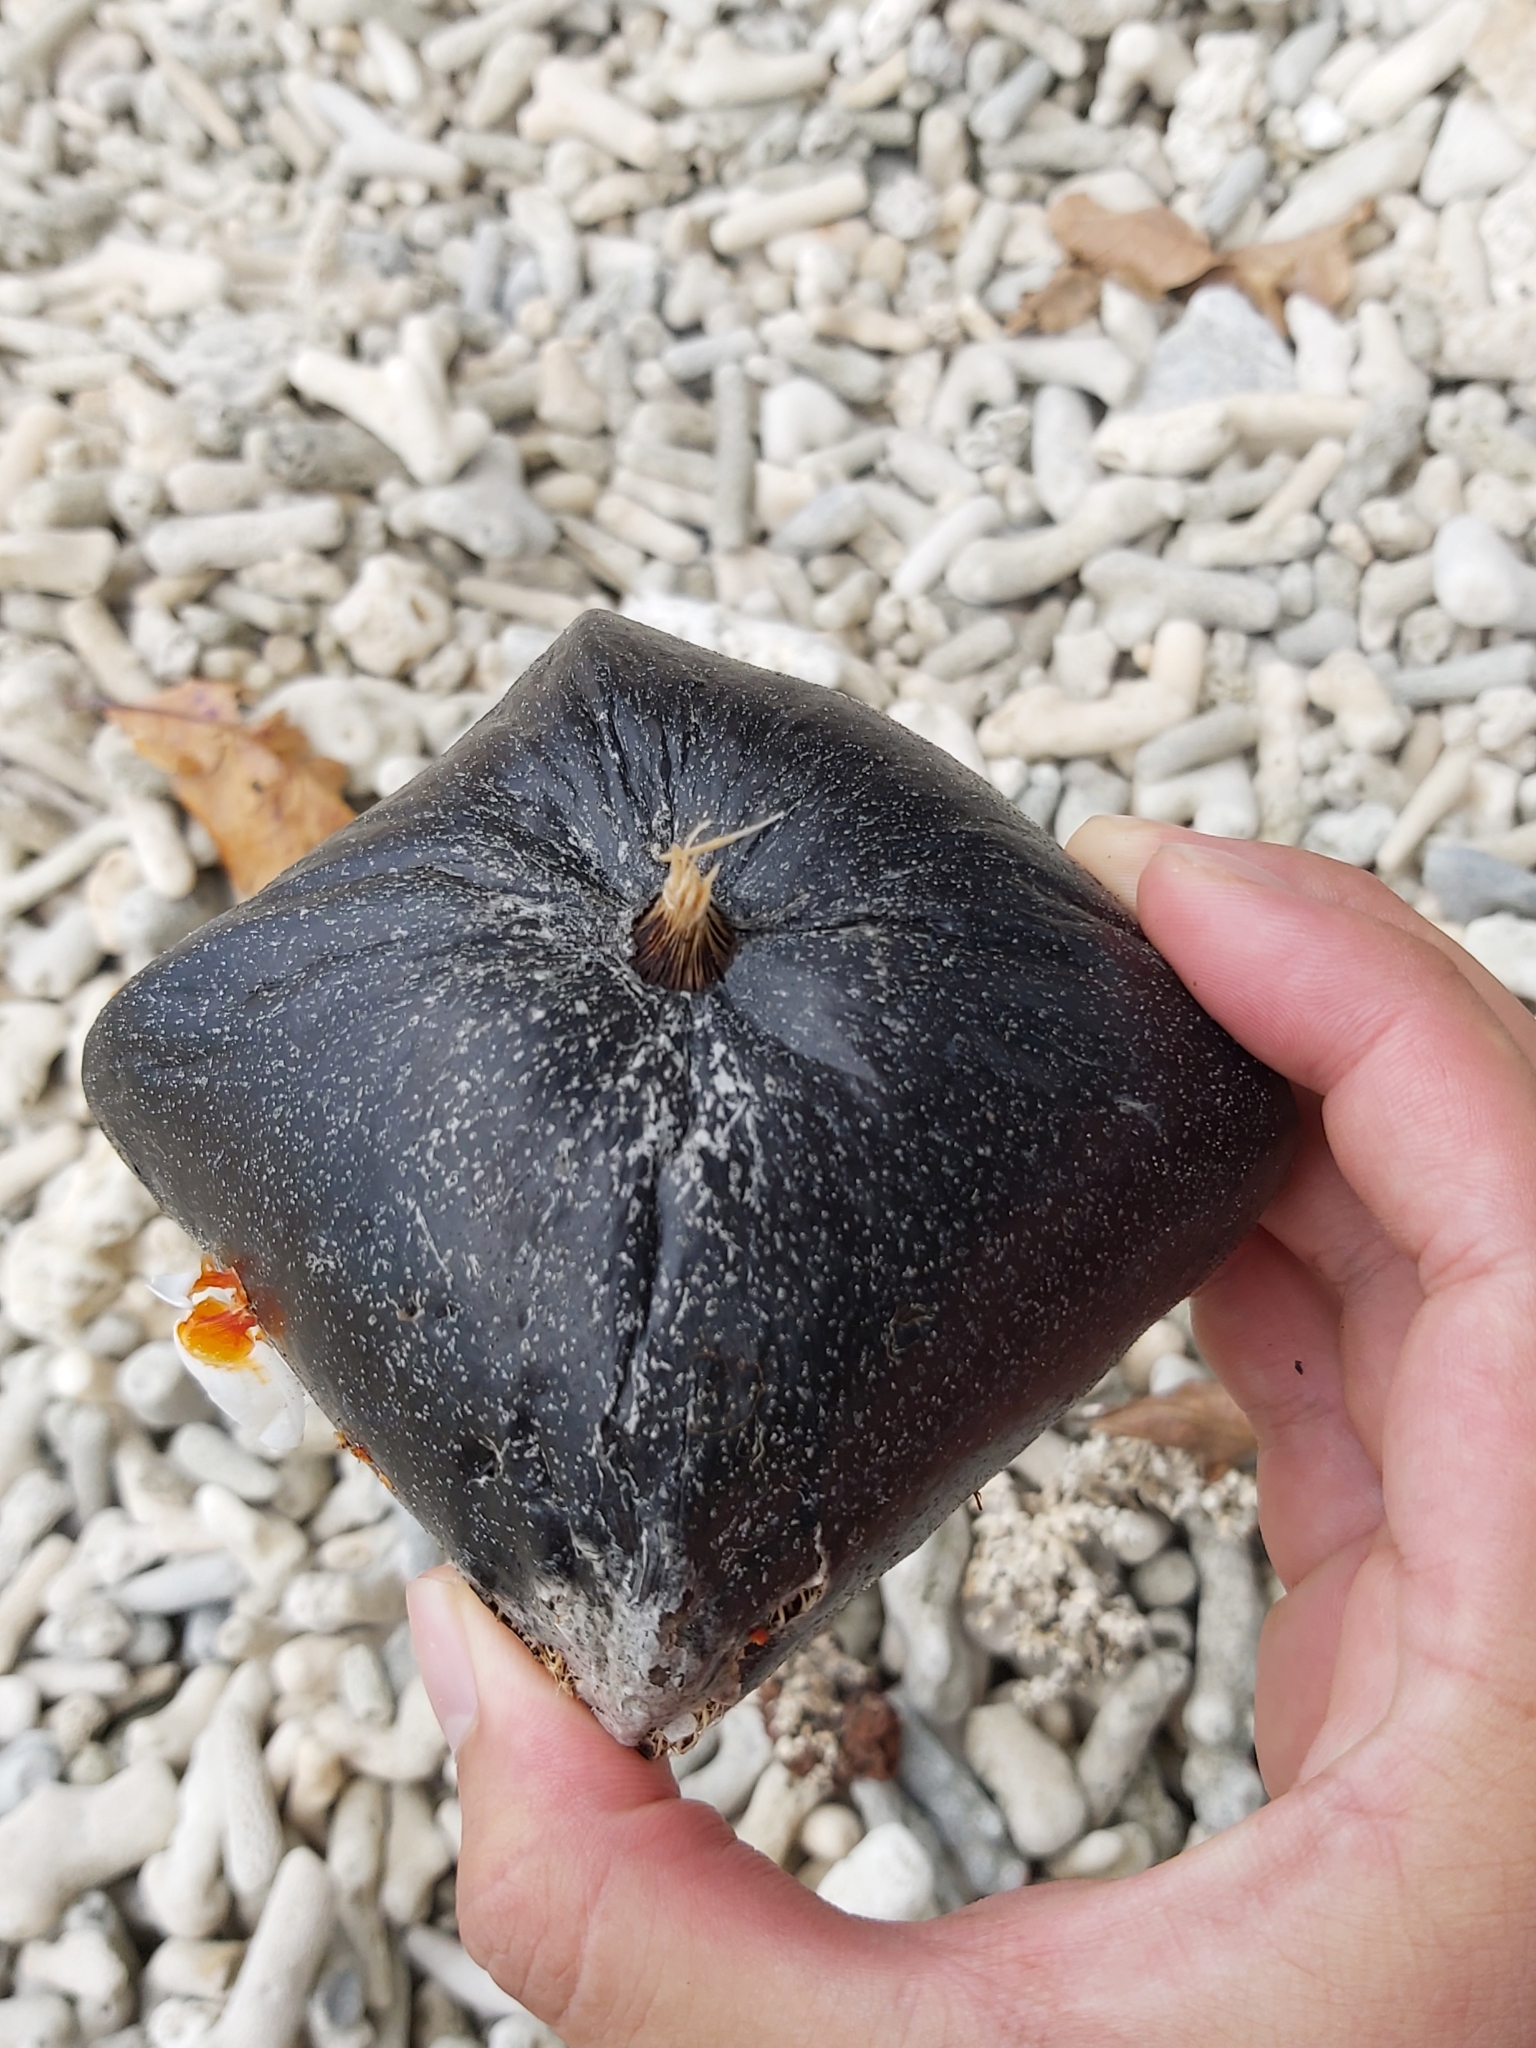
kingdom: Plantae
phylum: Tracheophyta
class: Magnoliopsida
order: Ericales
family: Lecythidaceae
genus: Barringtonia
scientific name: Barringtonia asiatica
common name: Mango-pine
